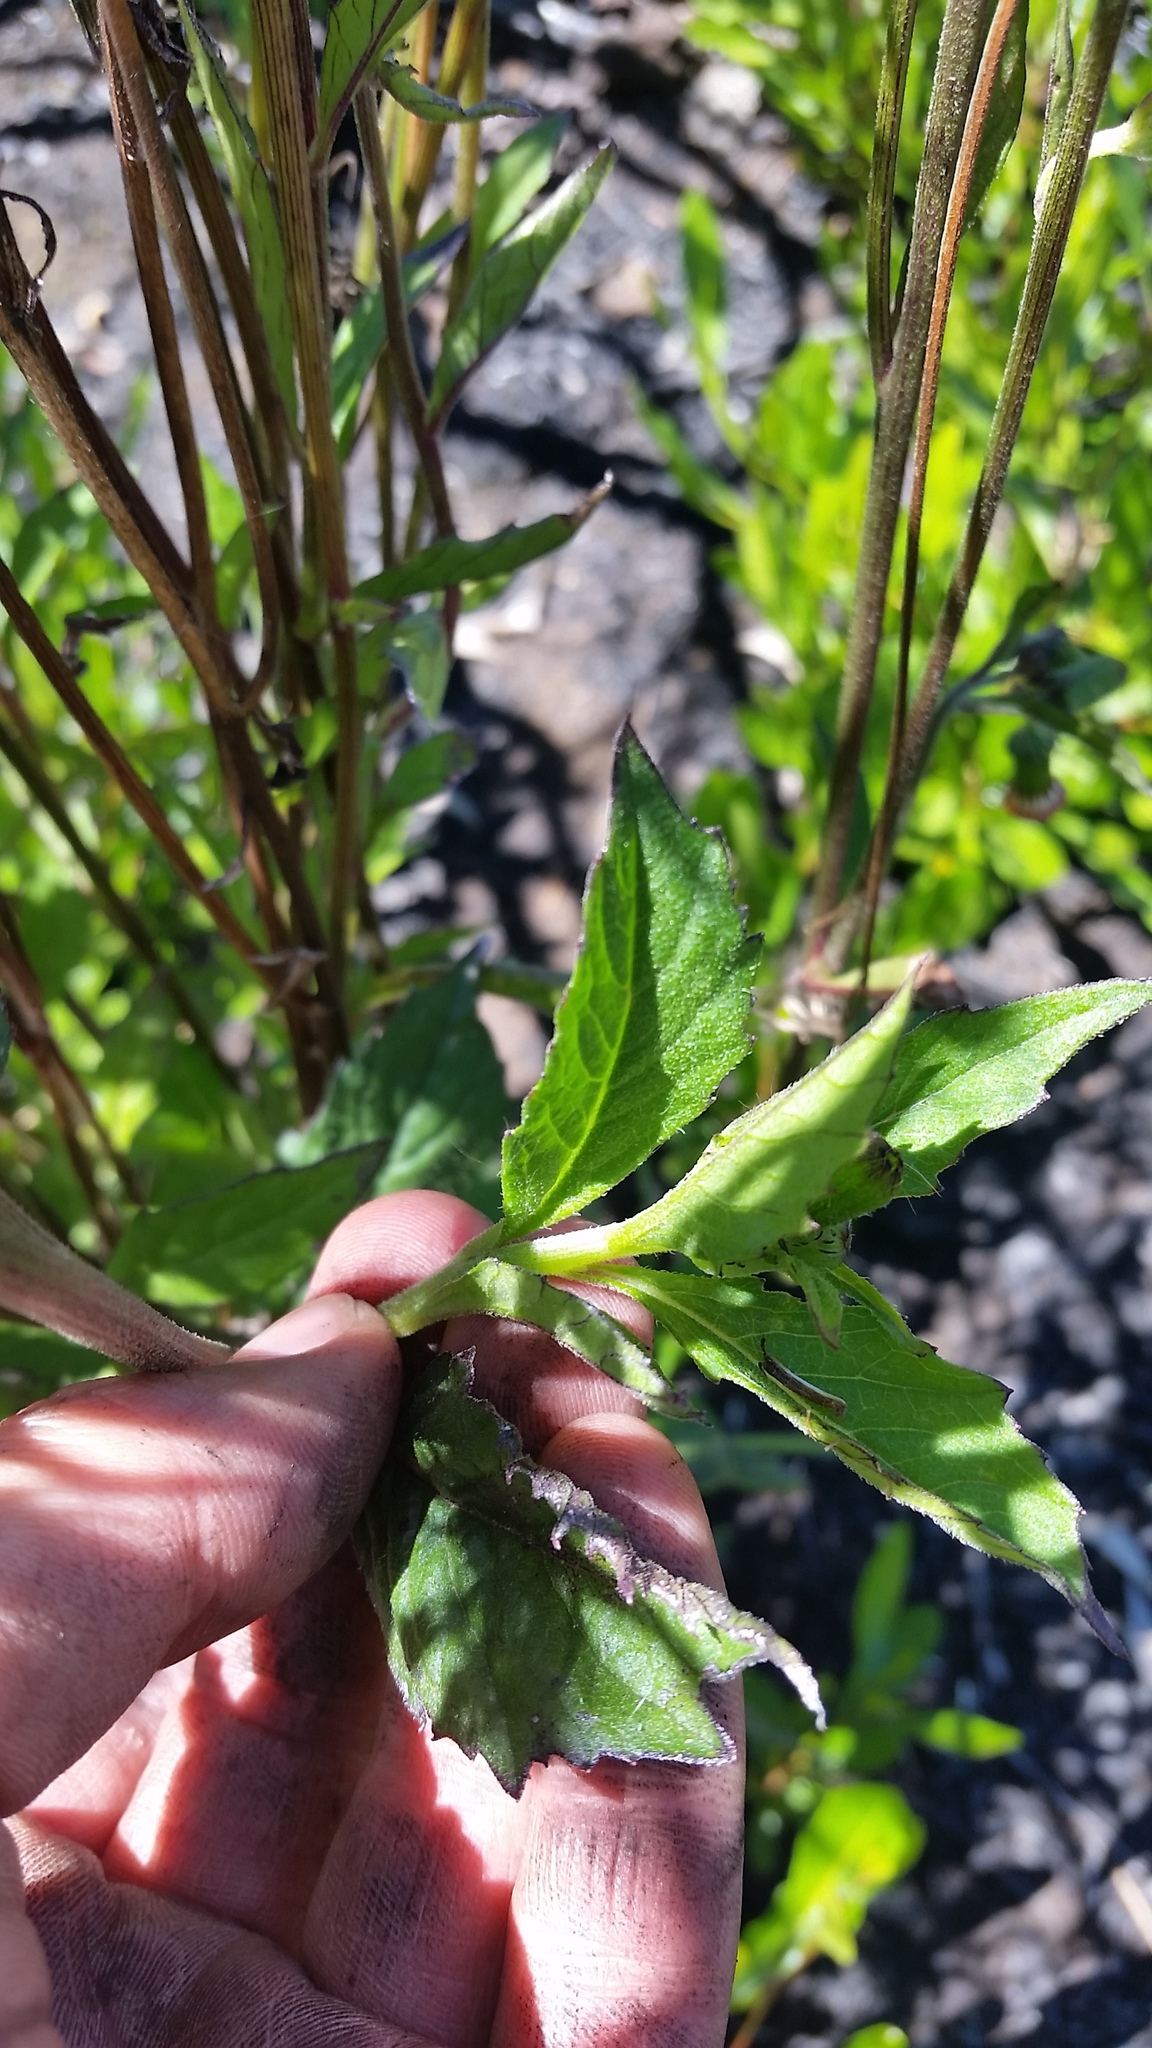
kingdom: Plantae
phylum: Tracheophyta
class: Magnoliopsida
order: Asterales
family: Asteraceae
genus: Crassocephalum
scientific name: Crassocephalum crepidioides
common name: Redflower ragleaf
